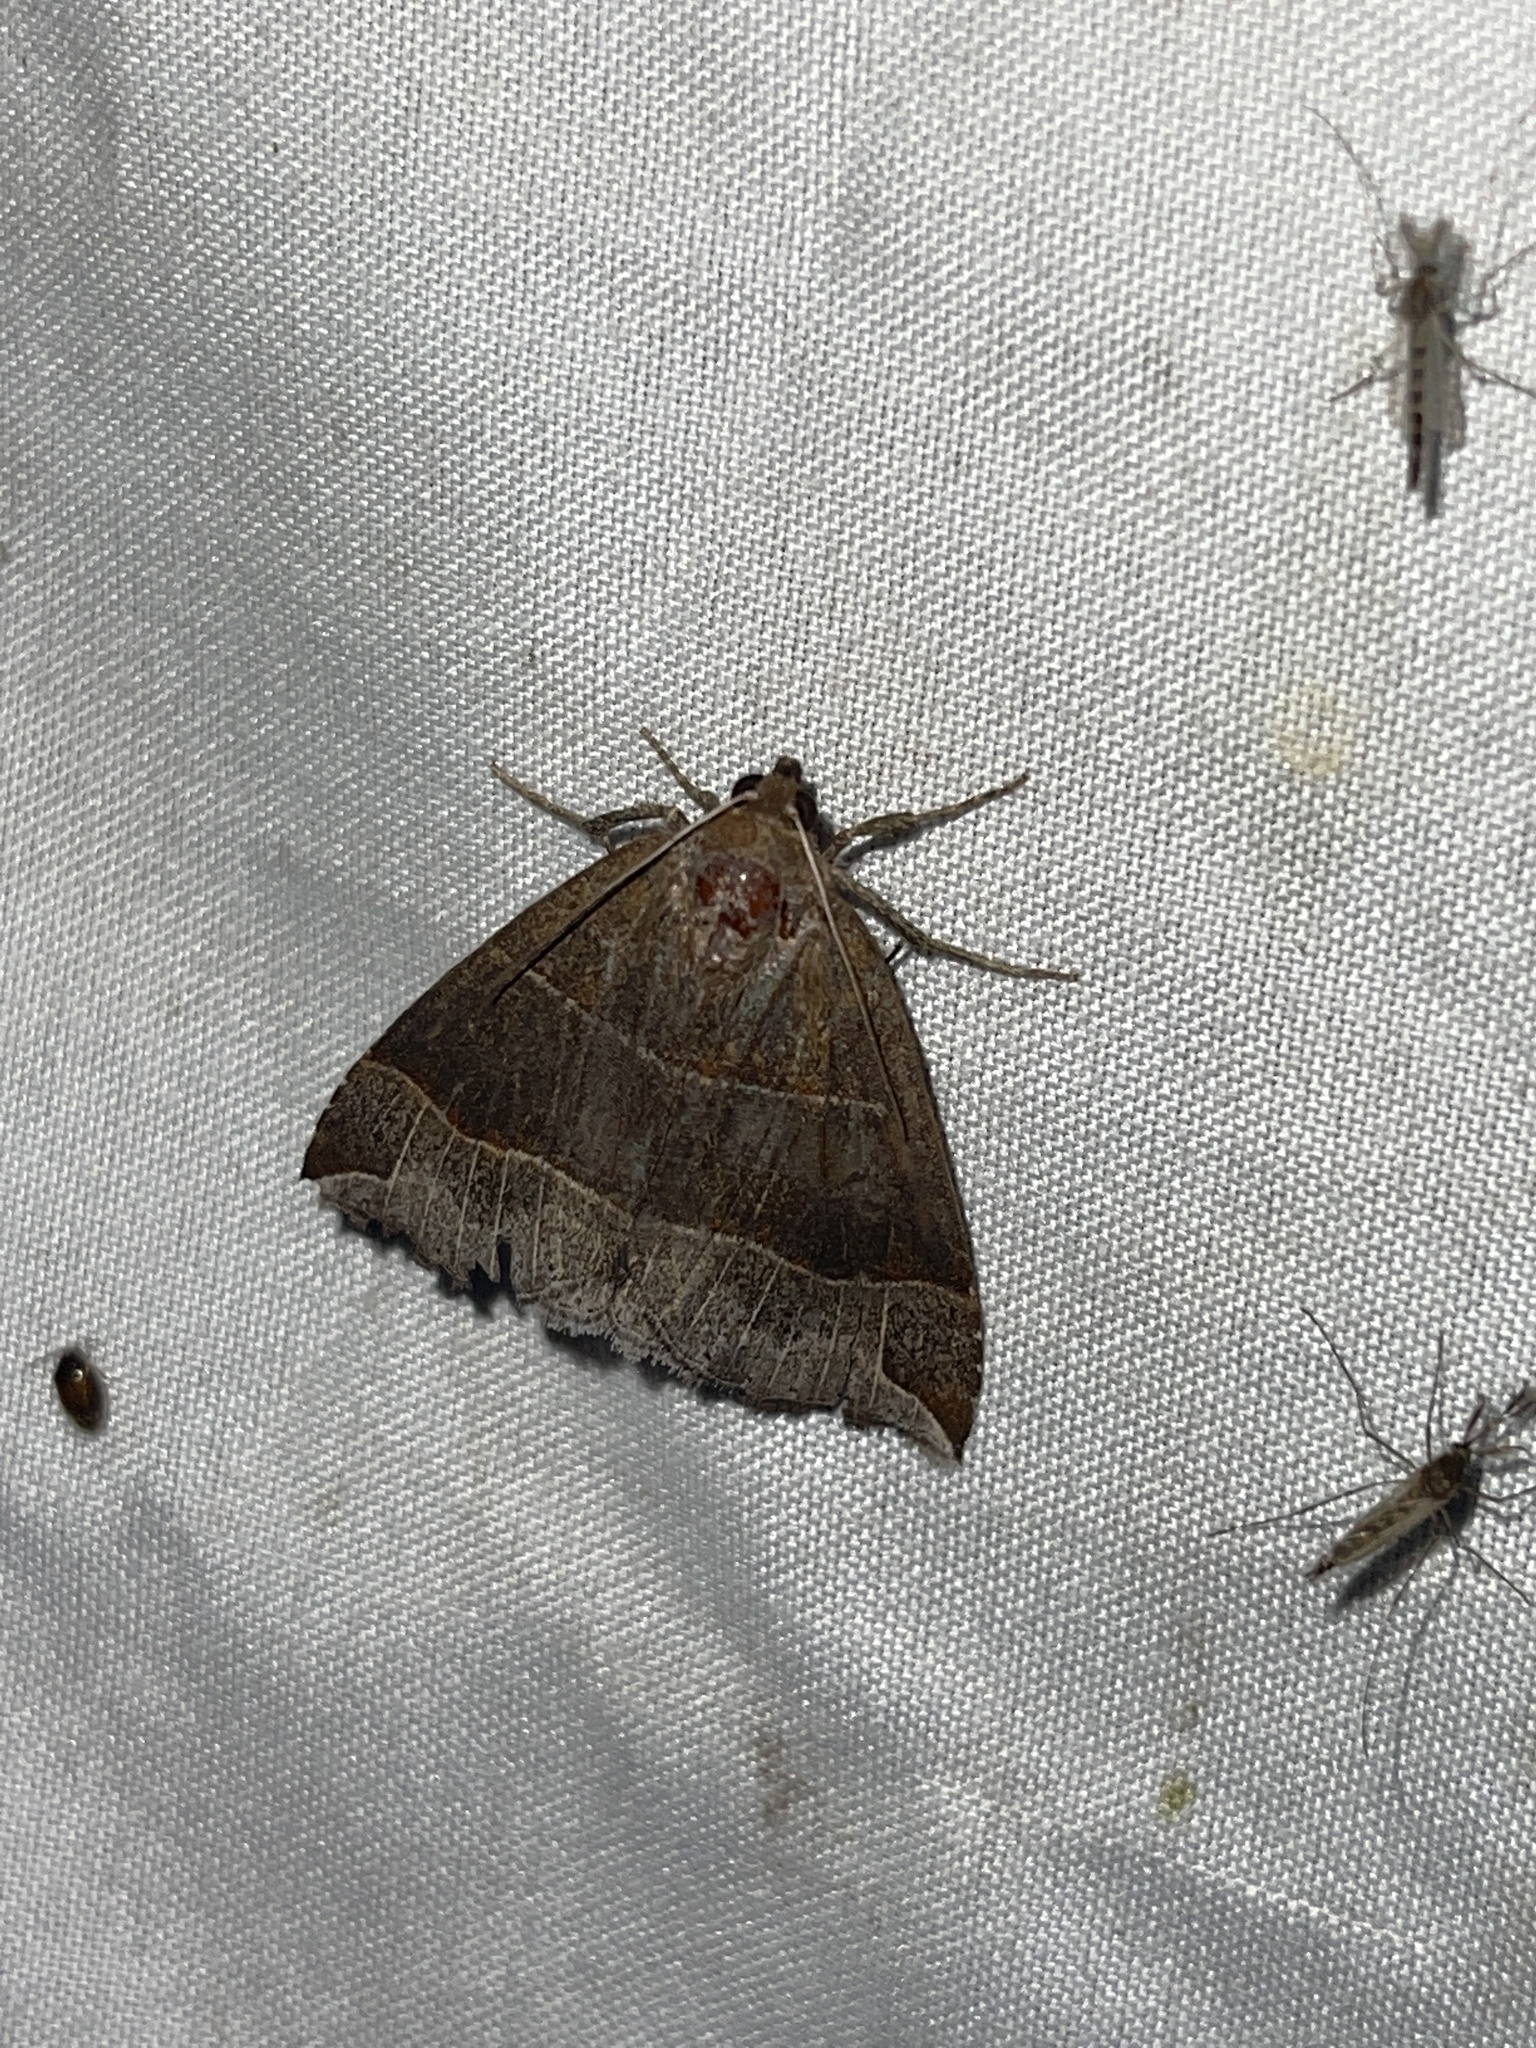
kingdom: Animalia
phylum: Arthropoda
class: Insecta
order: Lepidoptera
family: Erebidae
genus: Parallelia
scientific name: Parallelia bistriaris
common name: Maple looper moth
